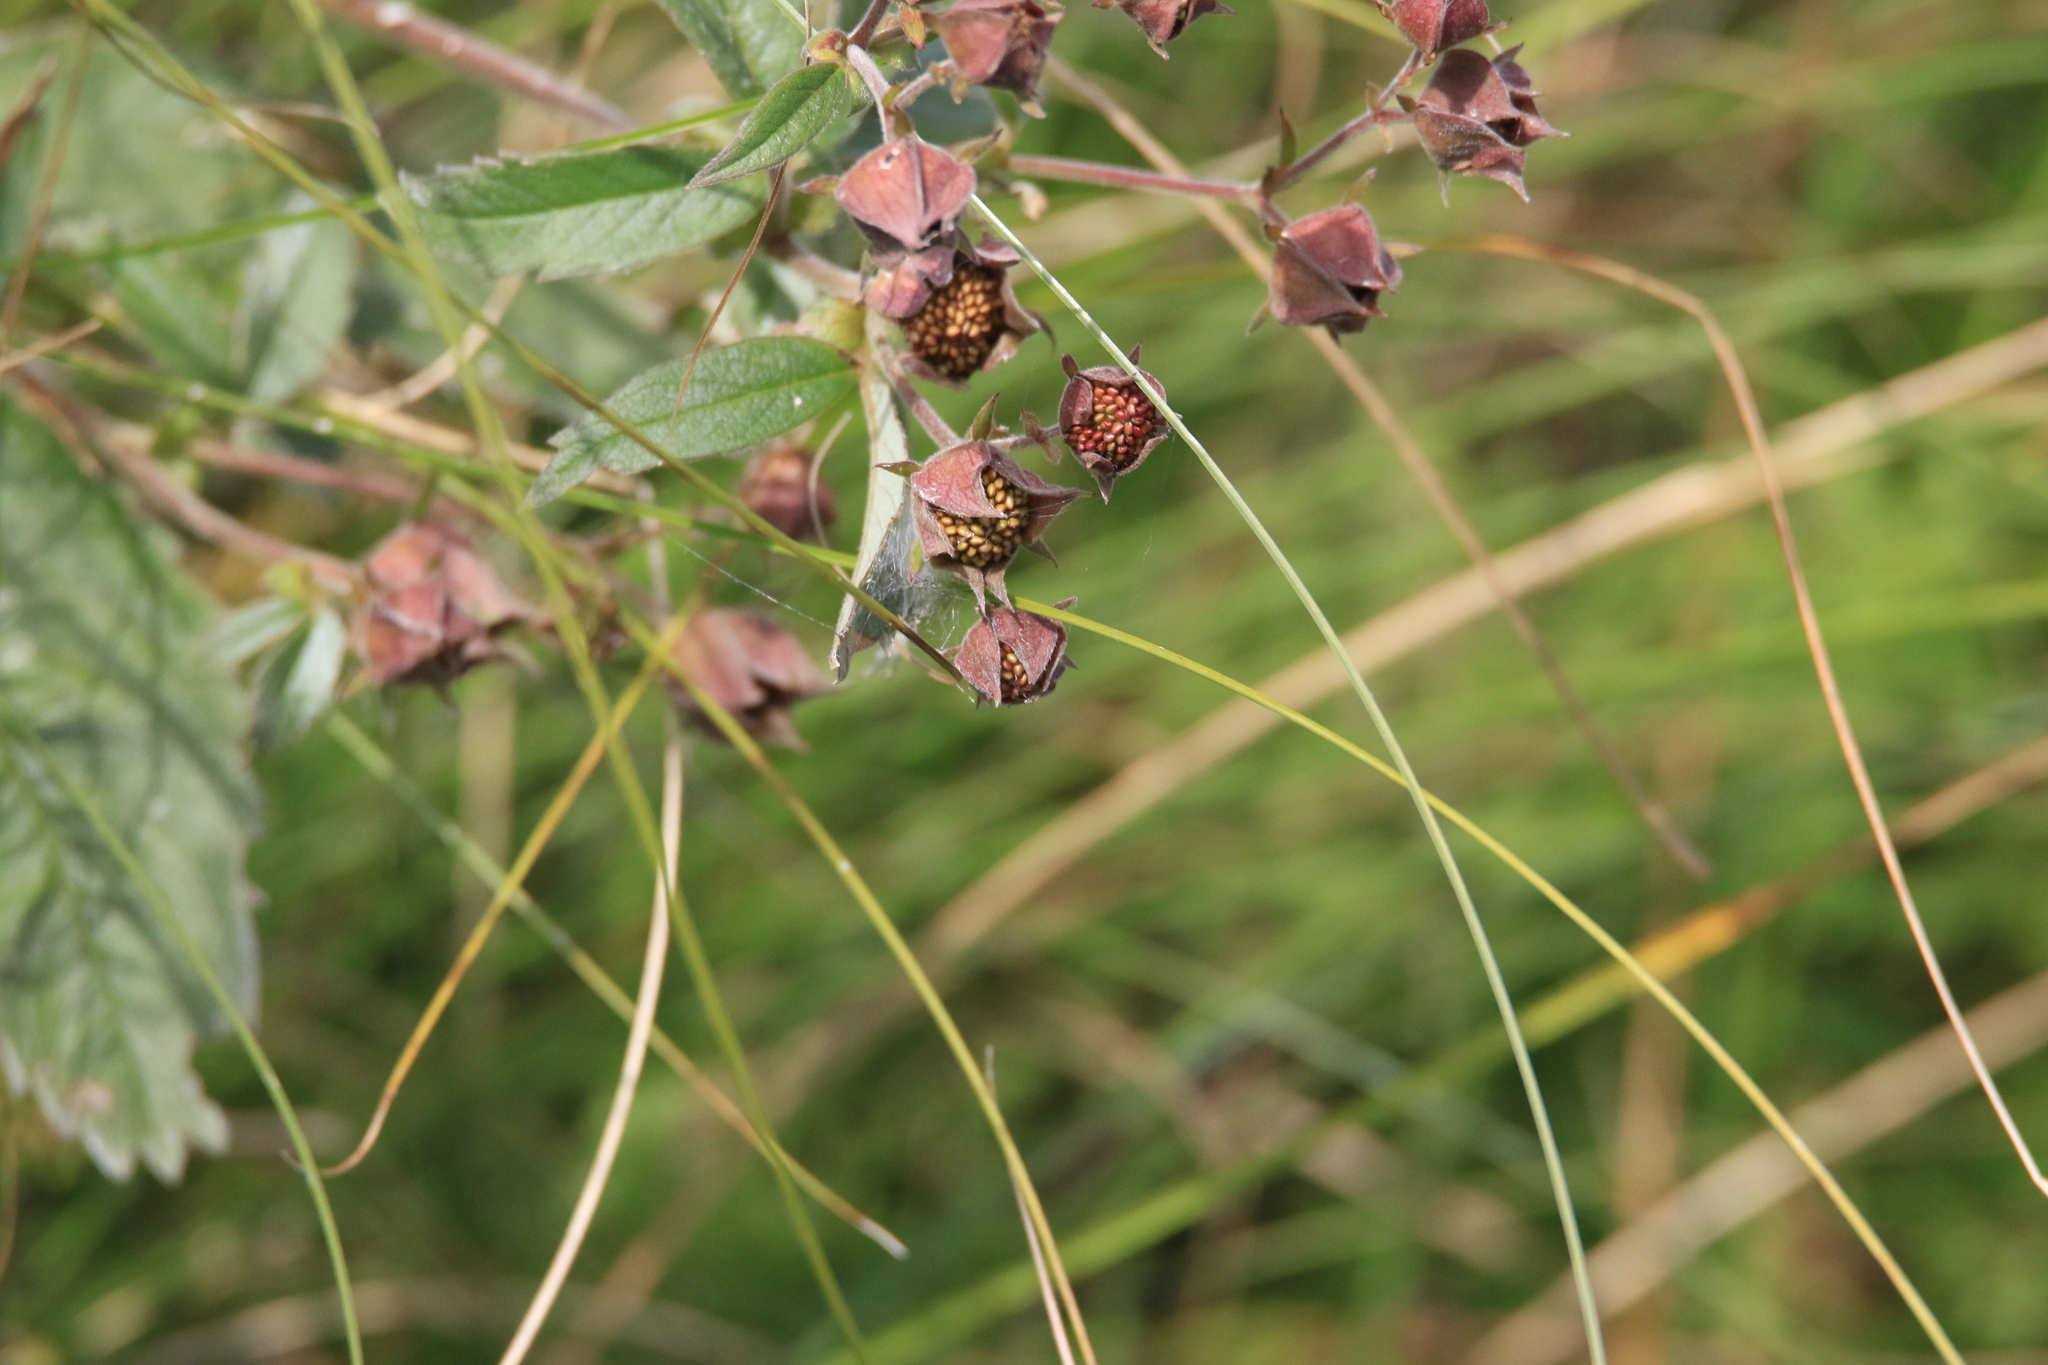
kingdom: Plantae
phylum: Tracheophyta
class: Magnoliopsida
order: Rosales
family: Rosaceae
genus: Comarum
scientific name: Comarum palustre
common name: Marsh cinquefoil
